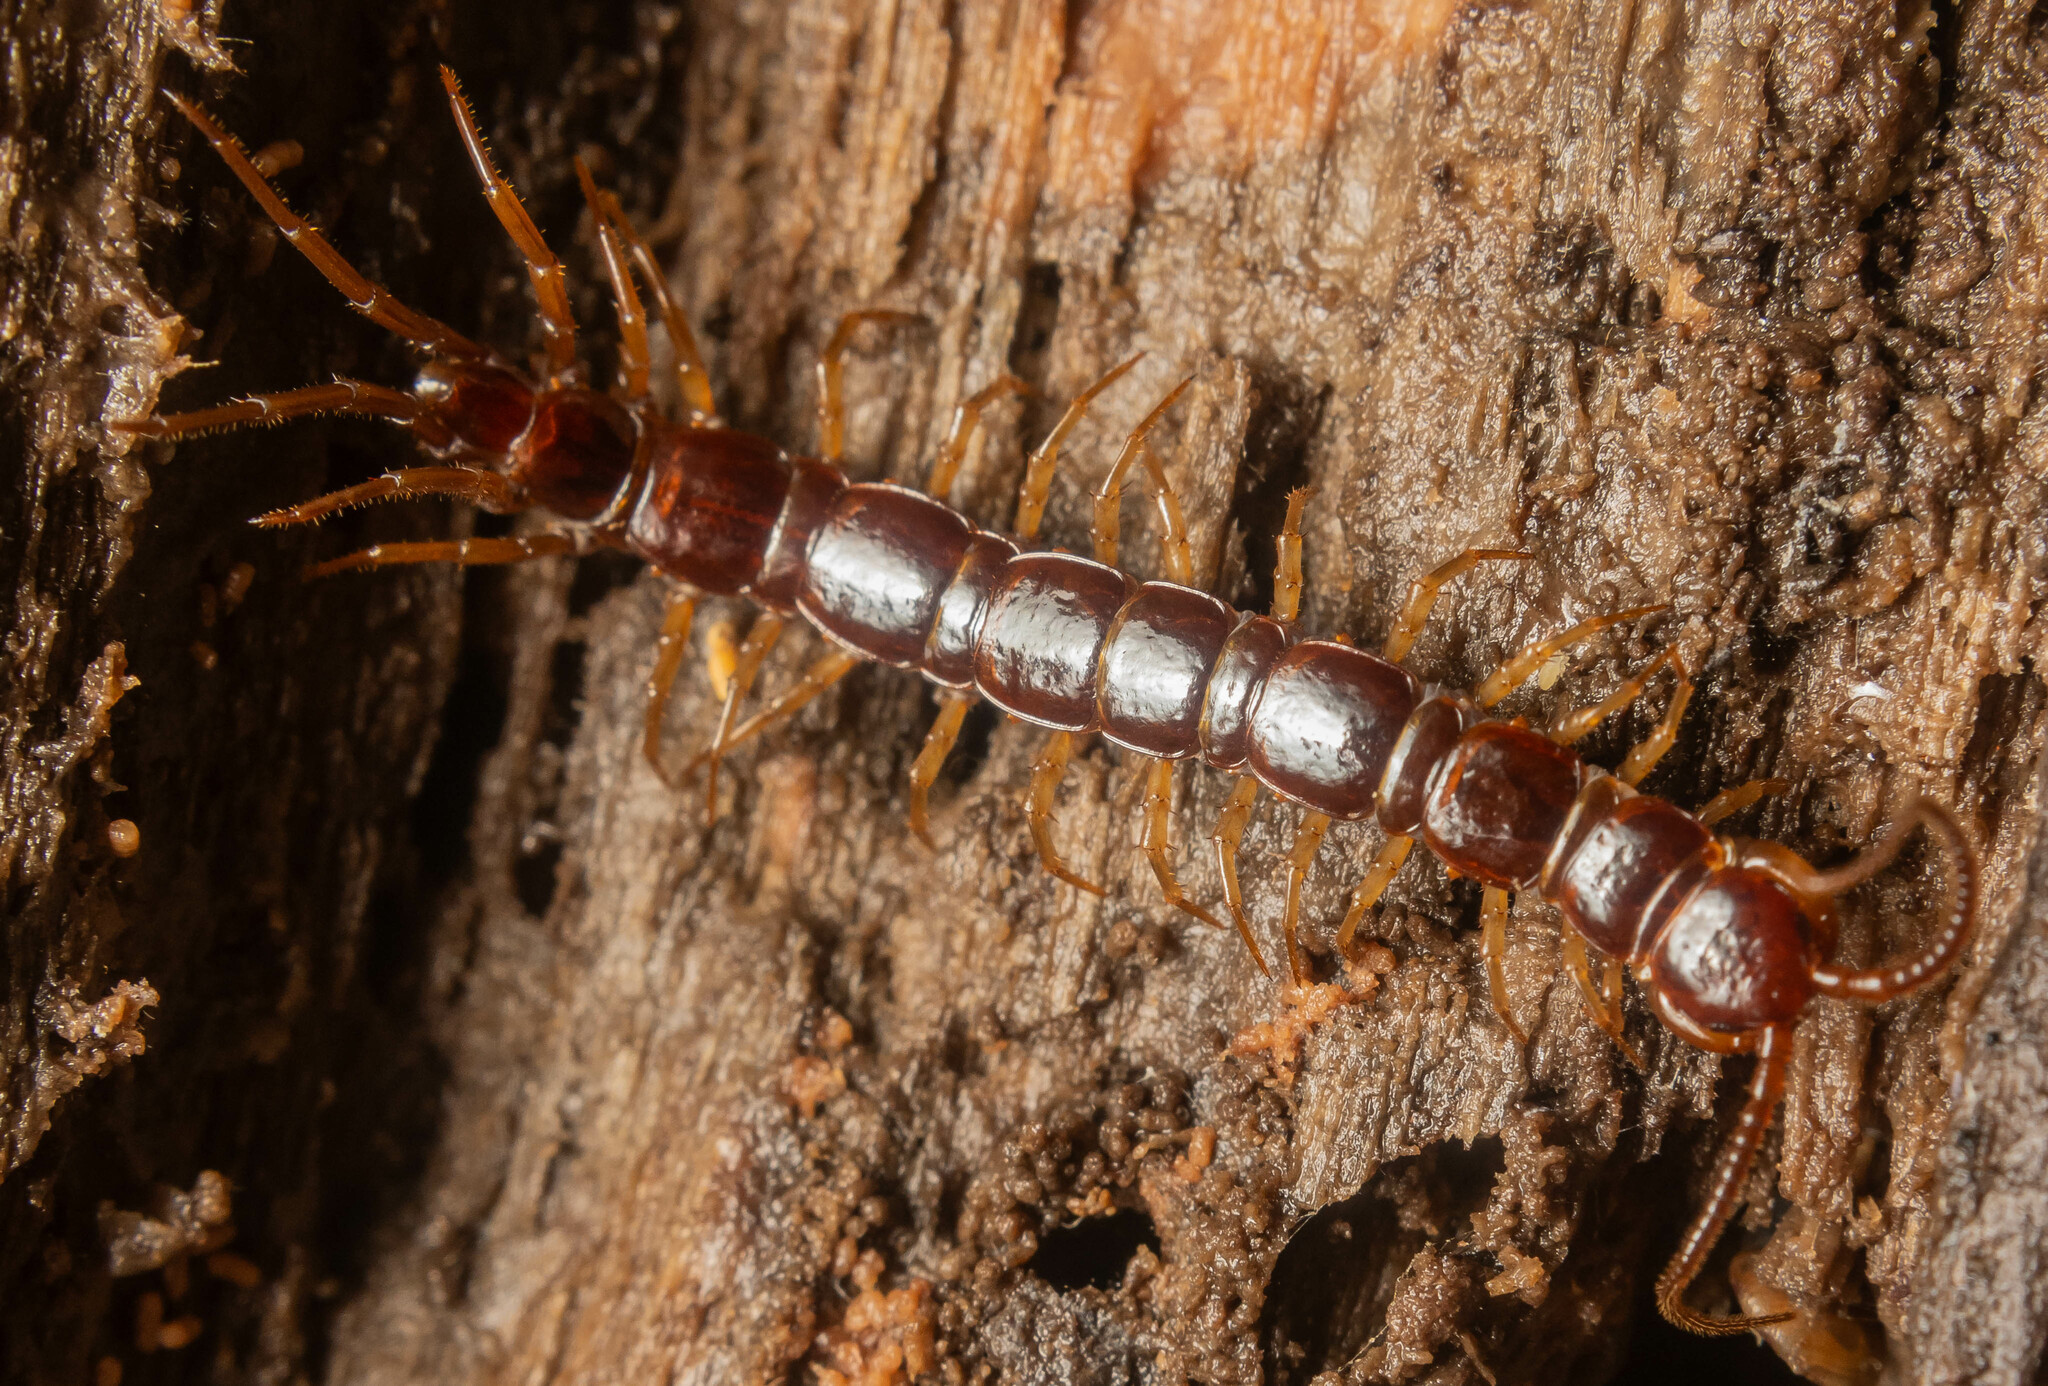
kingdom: Animalia
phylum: Arthropoda
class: Chilopoda
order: Lithobiomorpha
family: Lithobiidae
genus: Lithobius
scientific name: Lithobius forficatus
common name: Centipede
